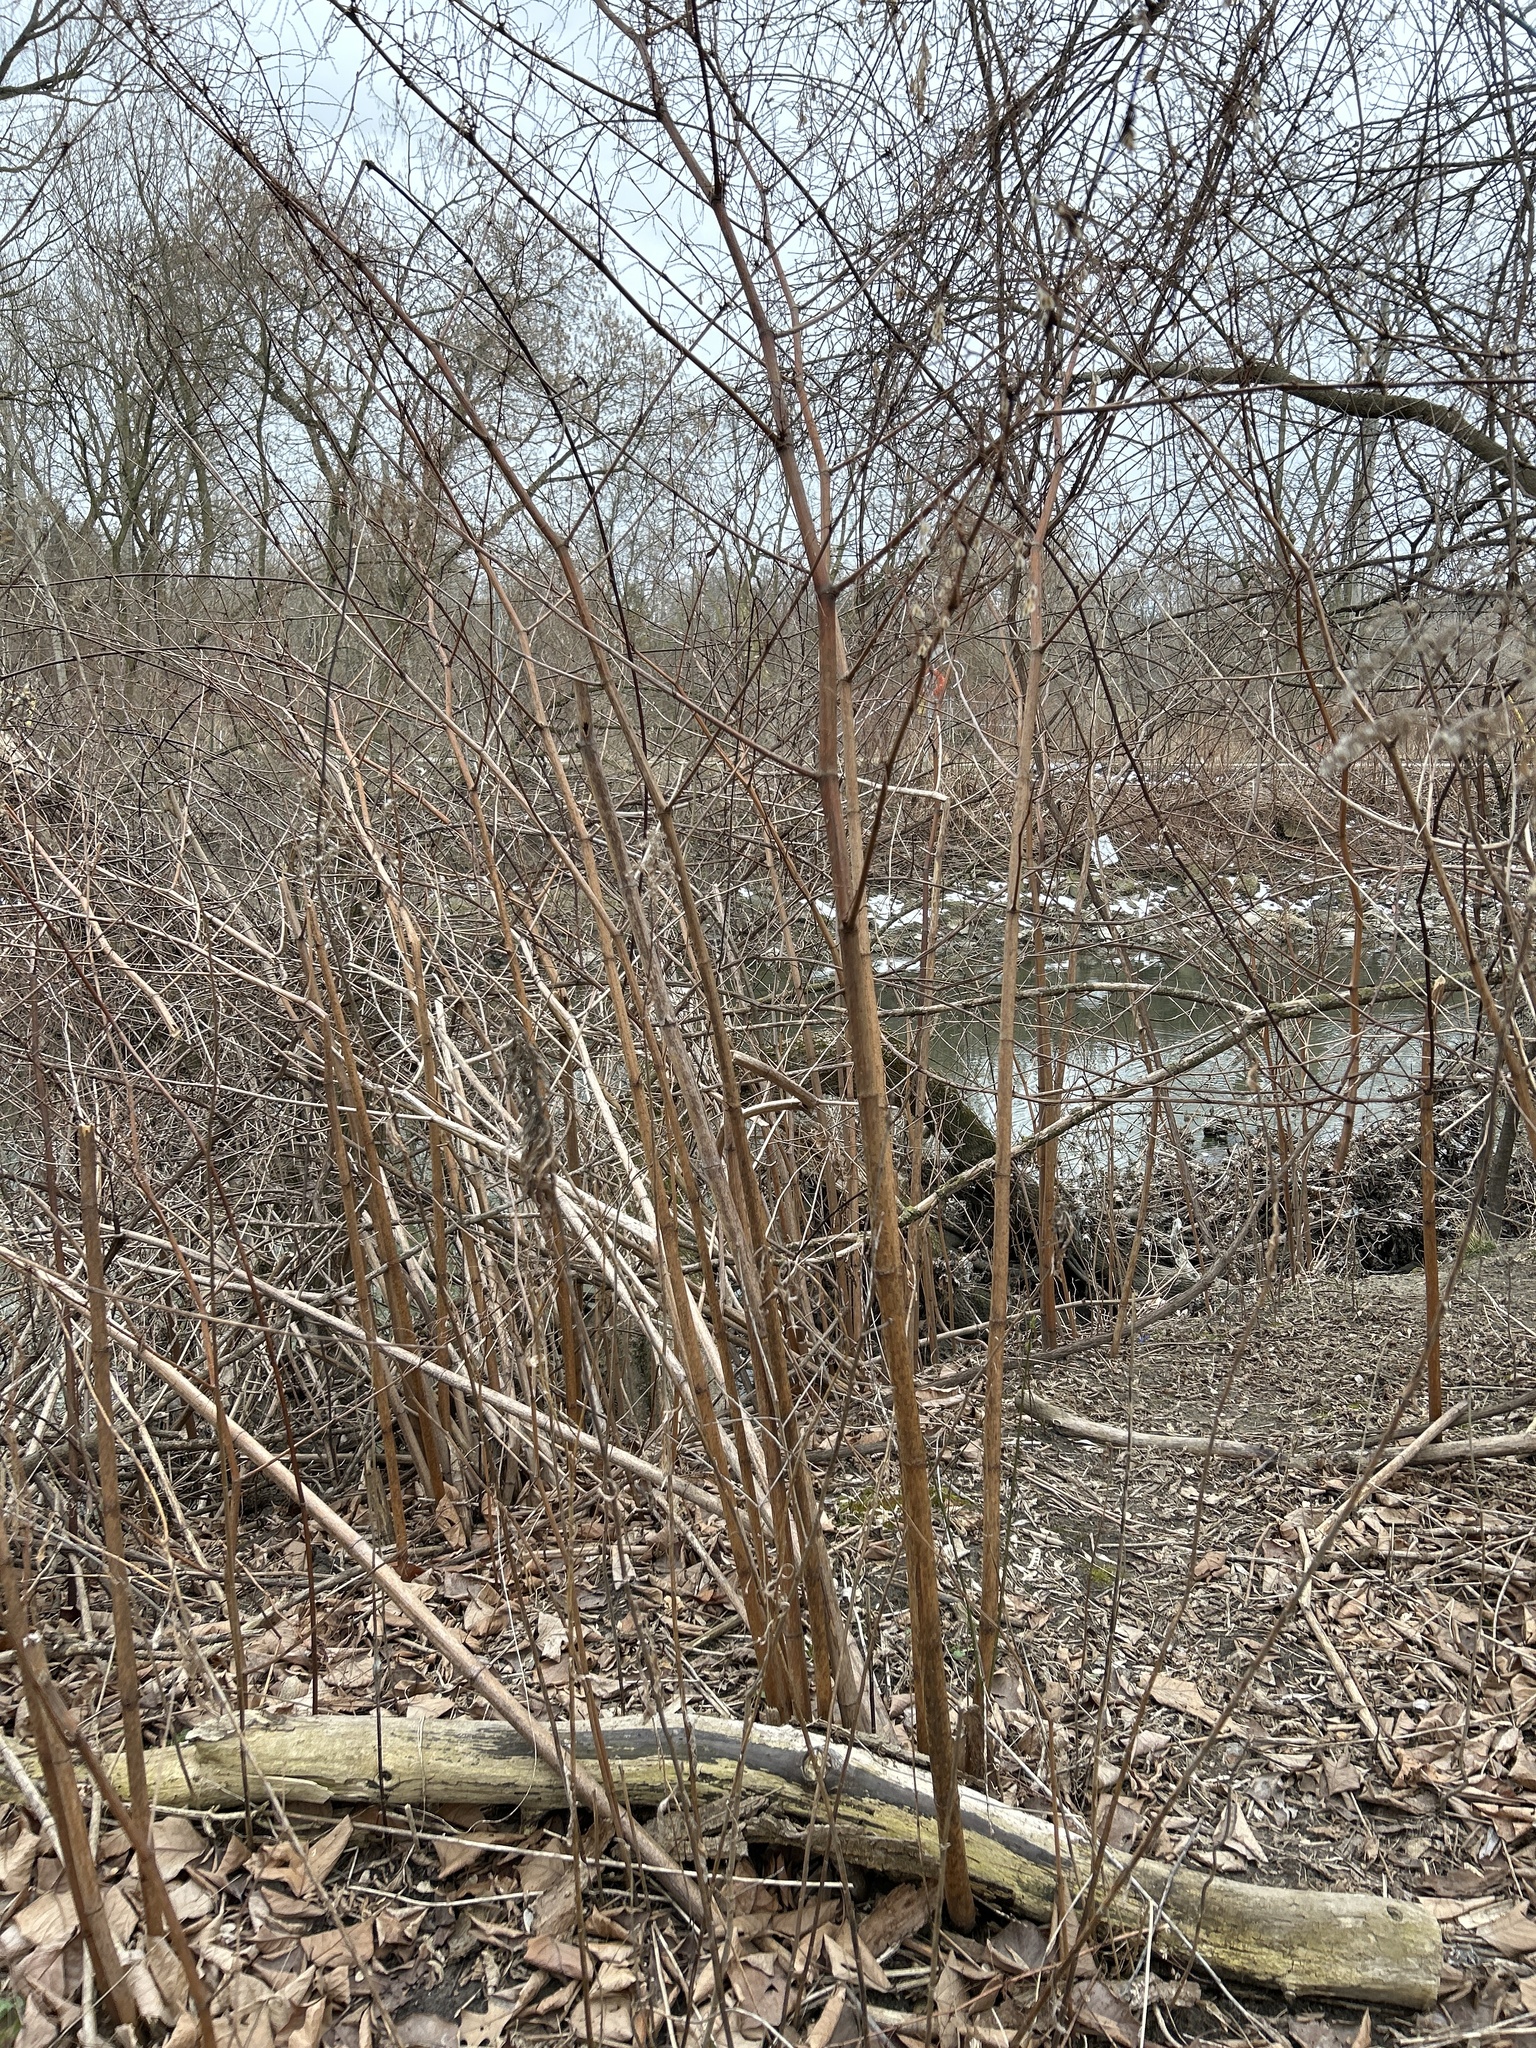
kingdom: Plantae
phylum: Tracheophyta
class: Magnoliopsida
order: Caryophyllales
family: Polygonaceae
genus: Reynoutria
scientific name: Reynoutria japonica
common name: Japanese knotweed
